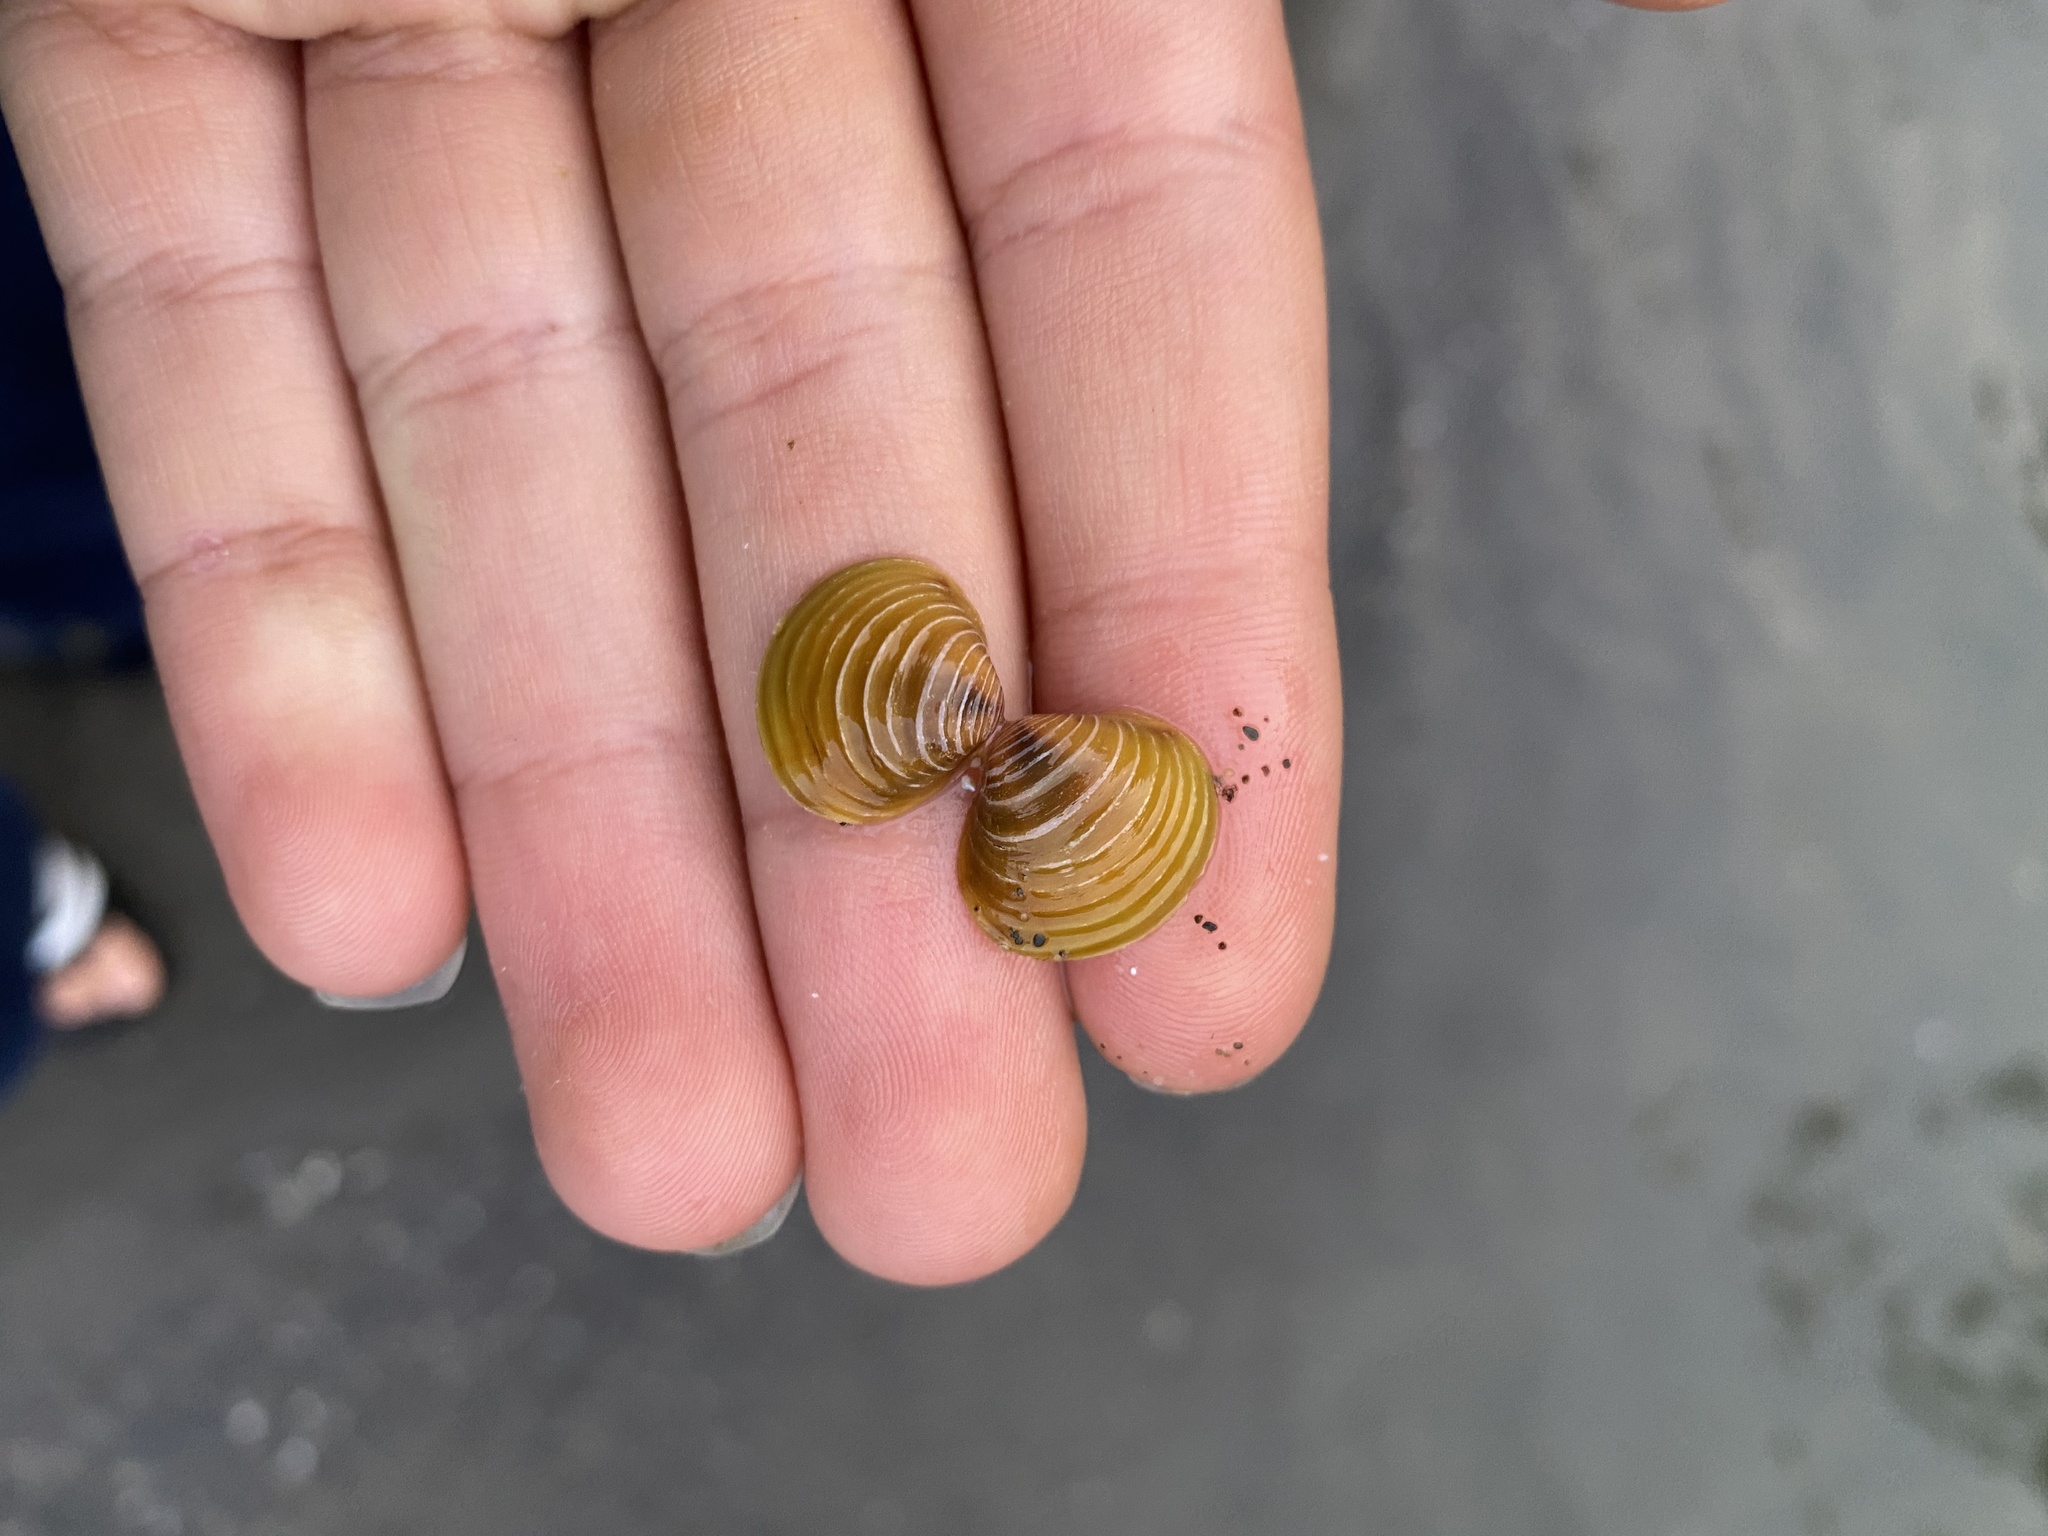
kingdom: Animalia
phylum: Mollusca
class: Bivalvia
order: Venerida
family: Cyrenidae
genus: Corbicula
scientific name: Corbicula fluminea
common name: Asian clam
